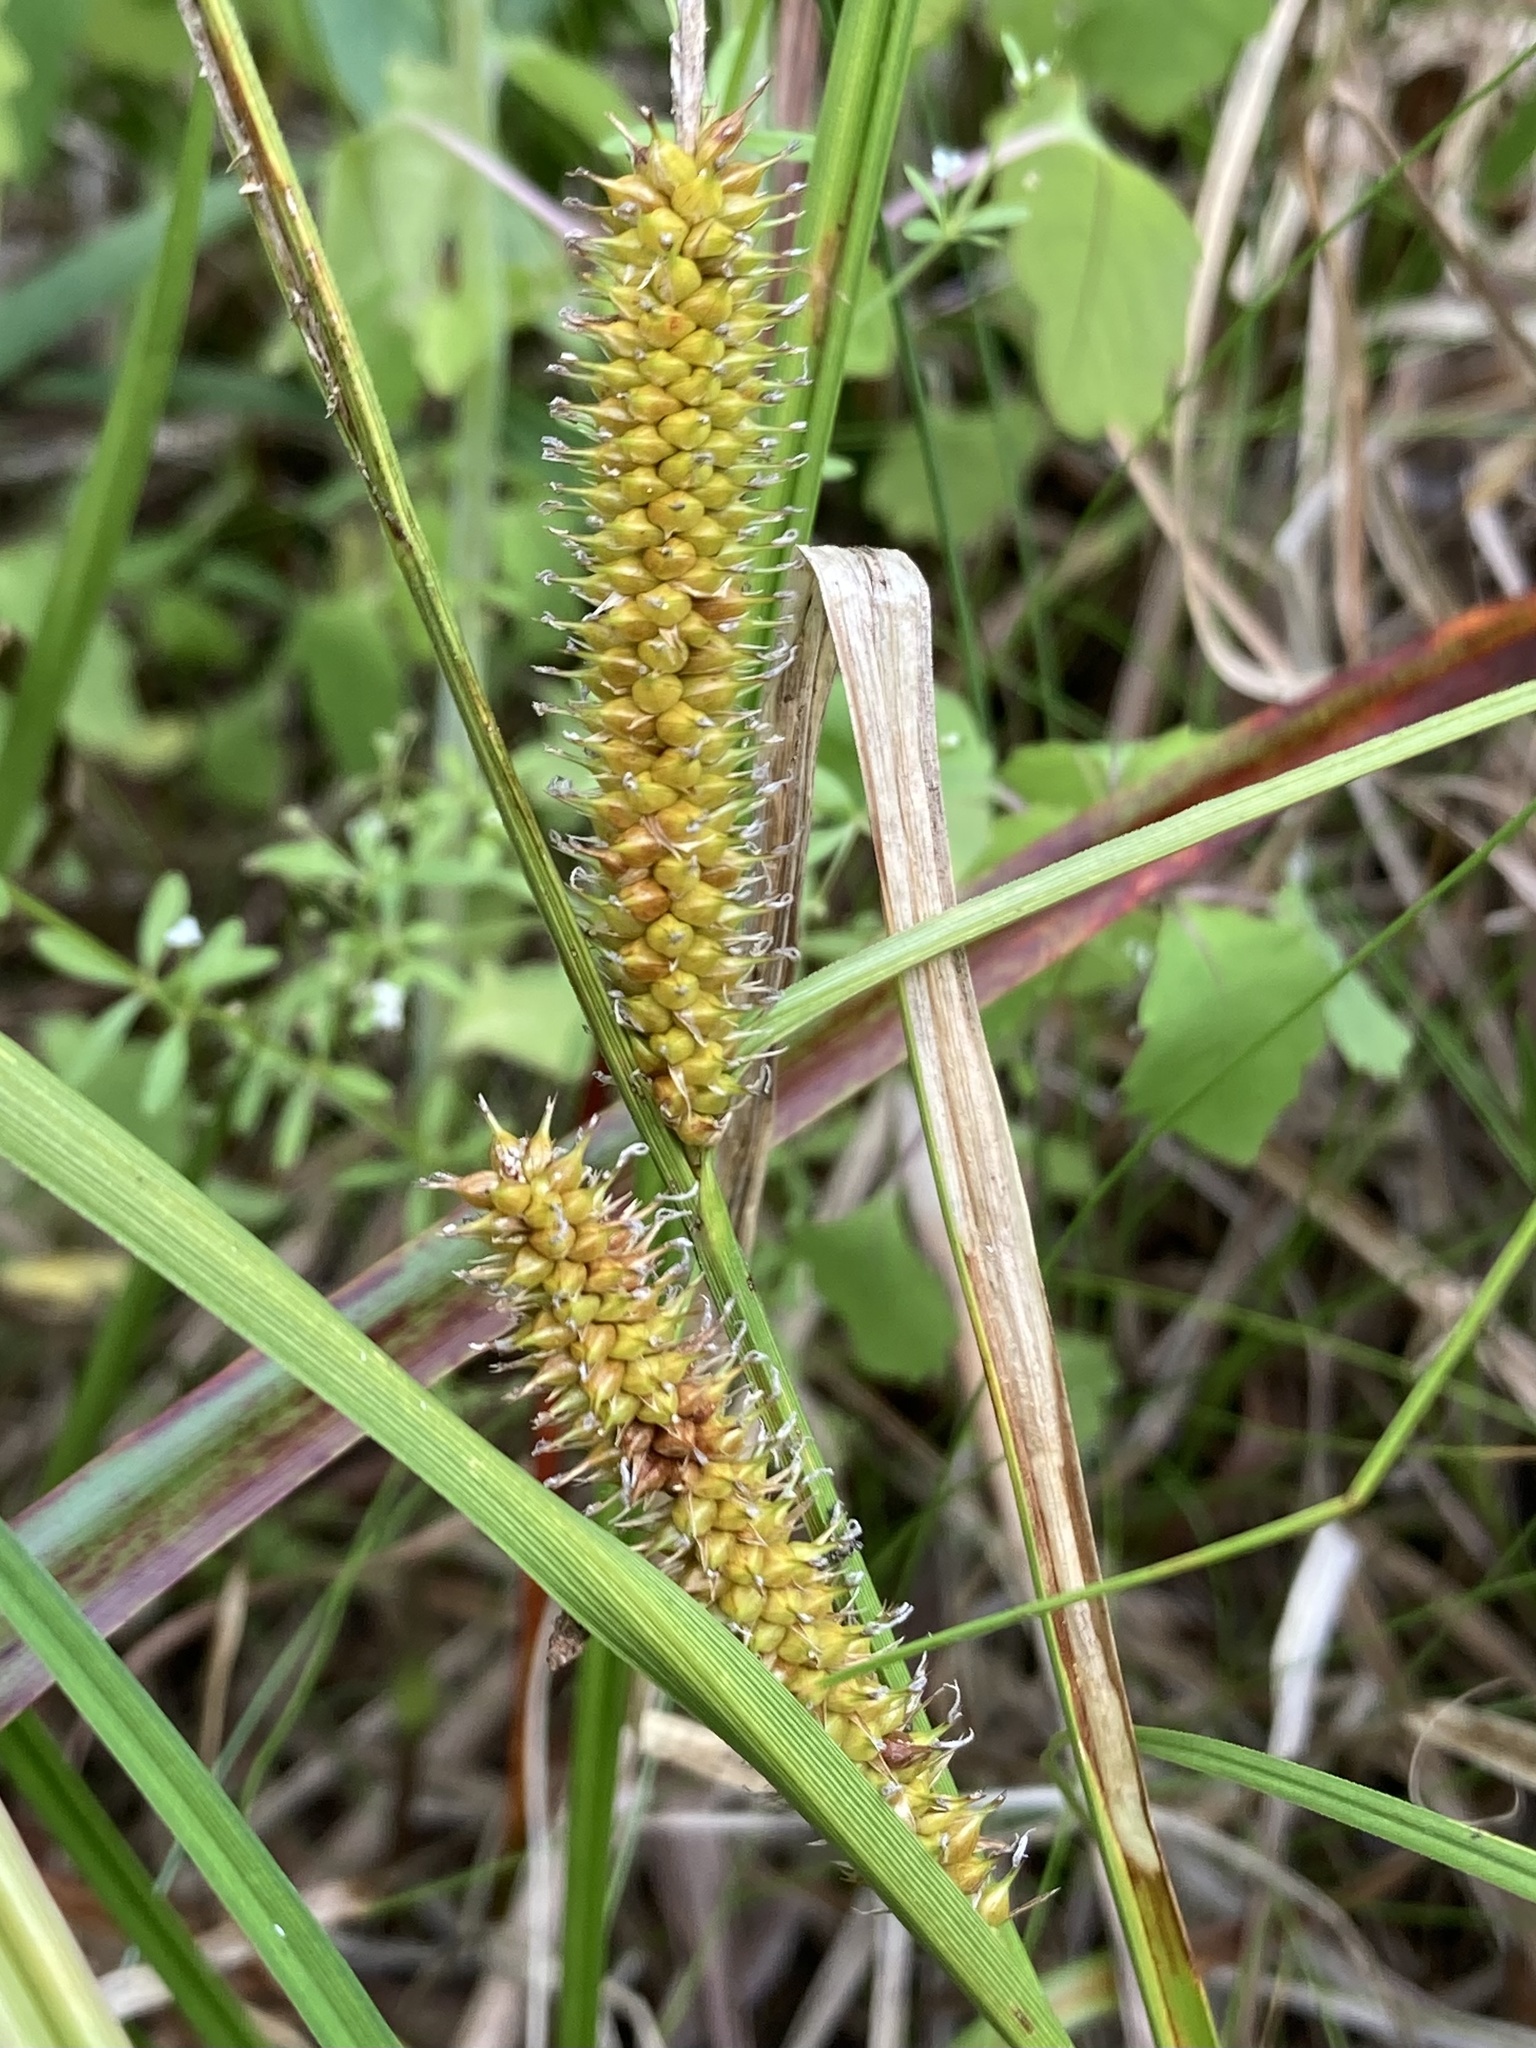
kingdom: Plantae
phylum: Tracheophyta
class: Liliopsida
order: Poales
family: Cyperaceae
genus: Carex
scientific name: Carex utriculata
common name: Beaked sedge
